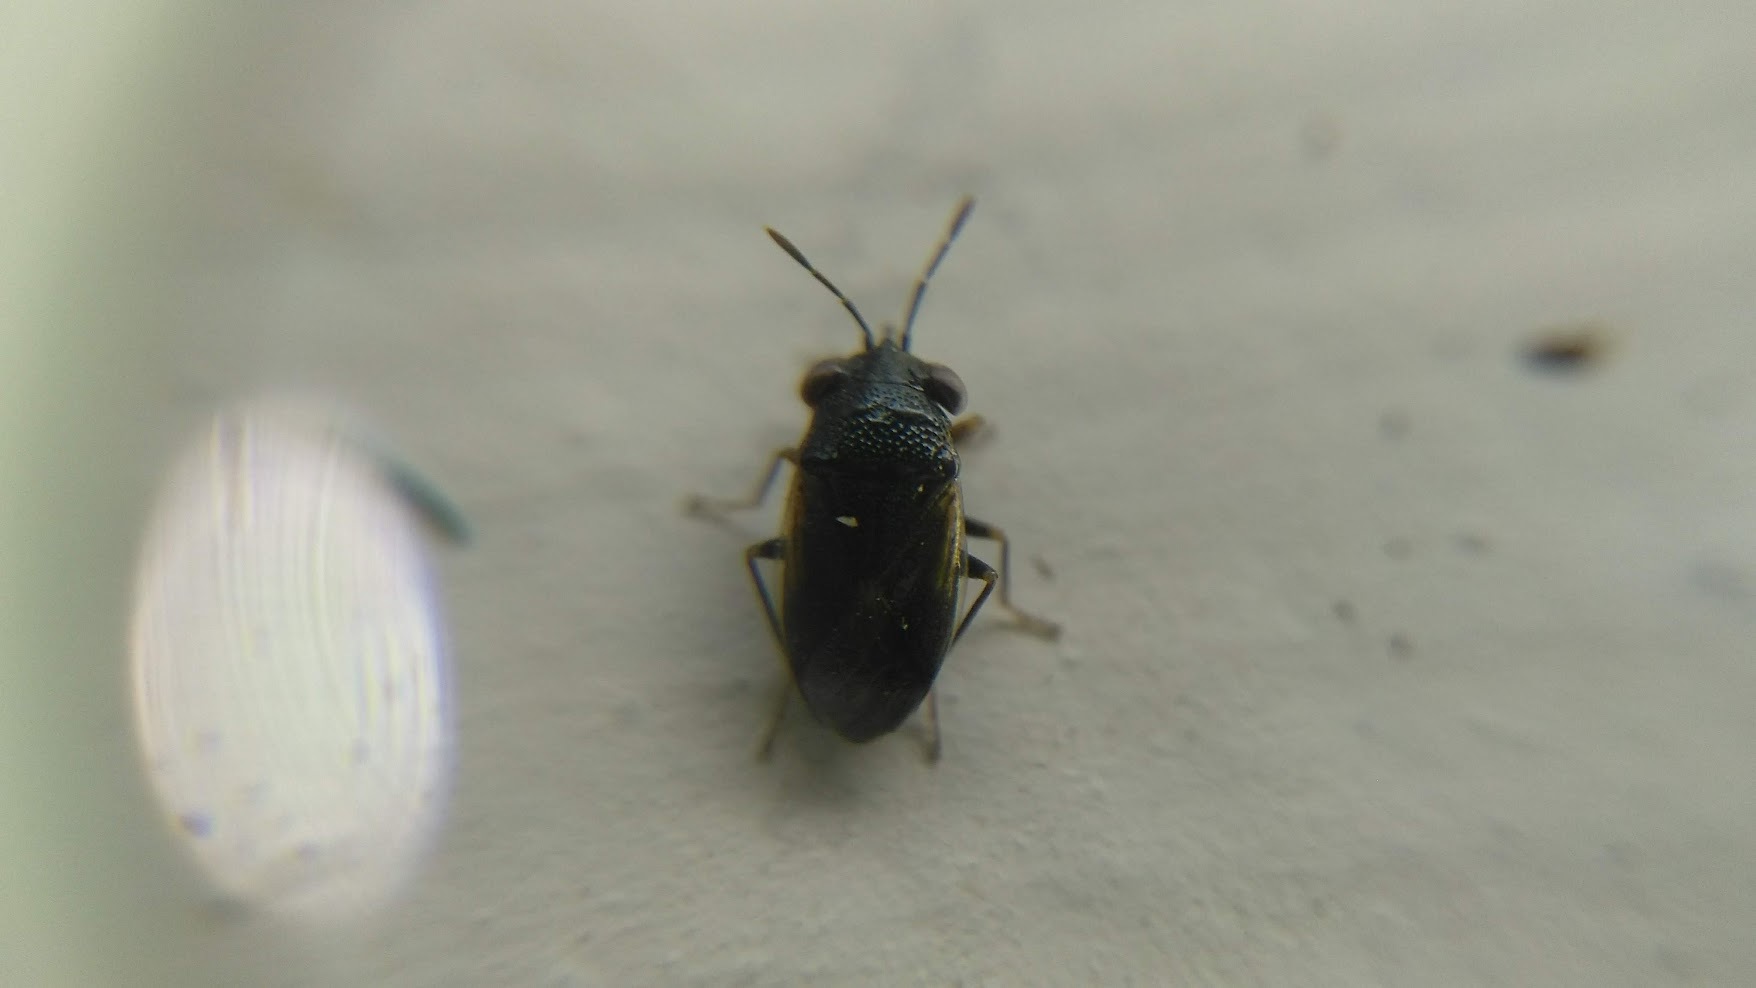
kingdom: Animalia
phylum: Arthropoda
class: Insecta
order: Hemiptera
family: Geocoridae
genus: Geocoris
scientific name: Geocoris uliginosus
